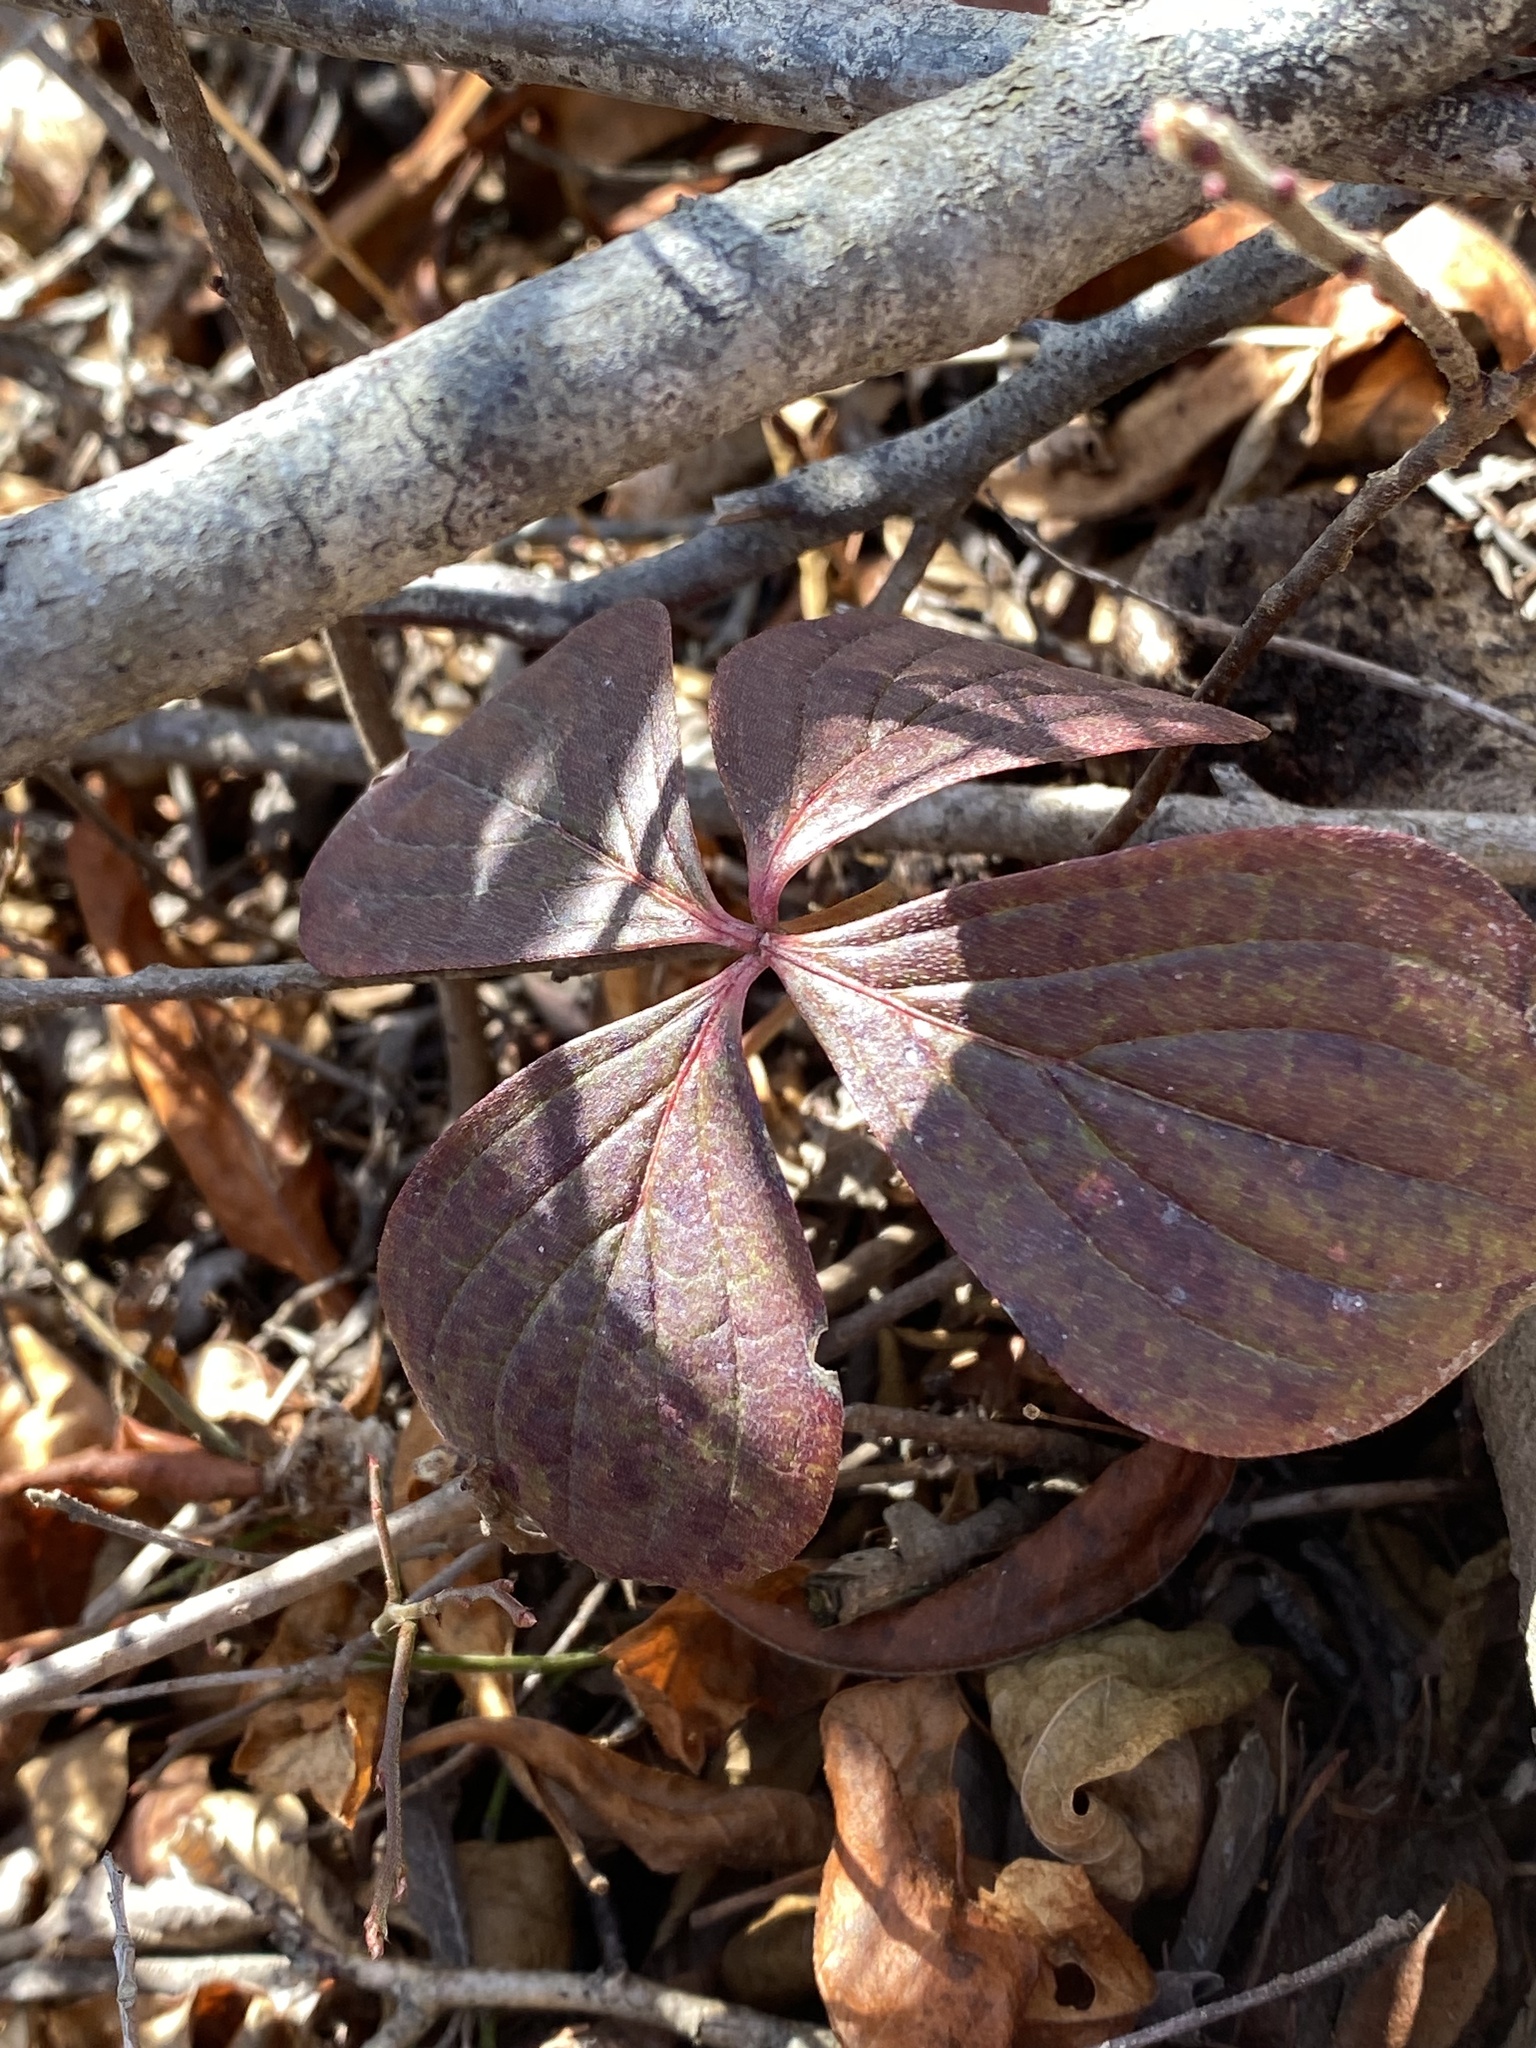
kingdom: Plantae
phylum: Tracheophyta
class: Magnoliopsida
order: Cornales
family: Cornaceae
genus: Cornus
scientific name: Cornus canadensis
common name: Creeping dogwood
